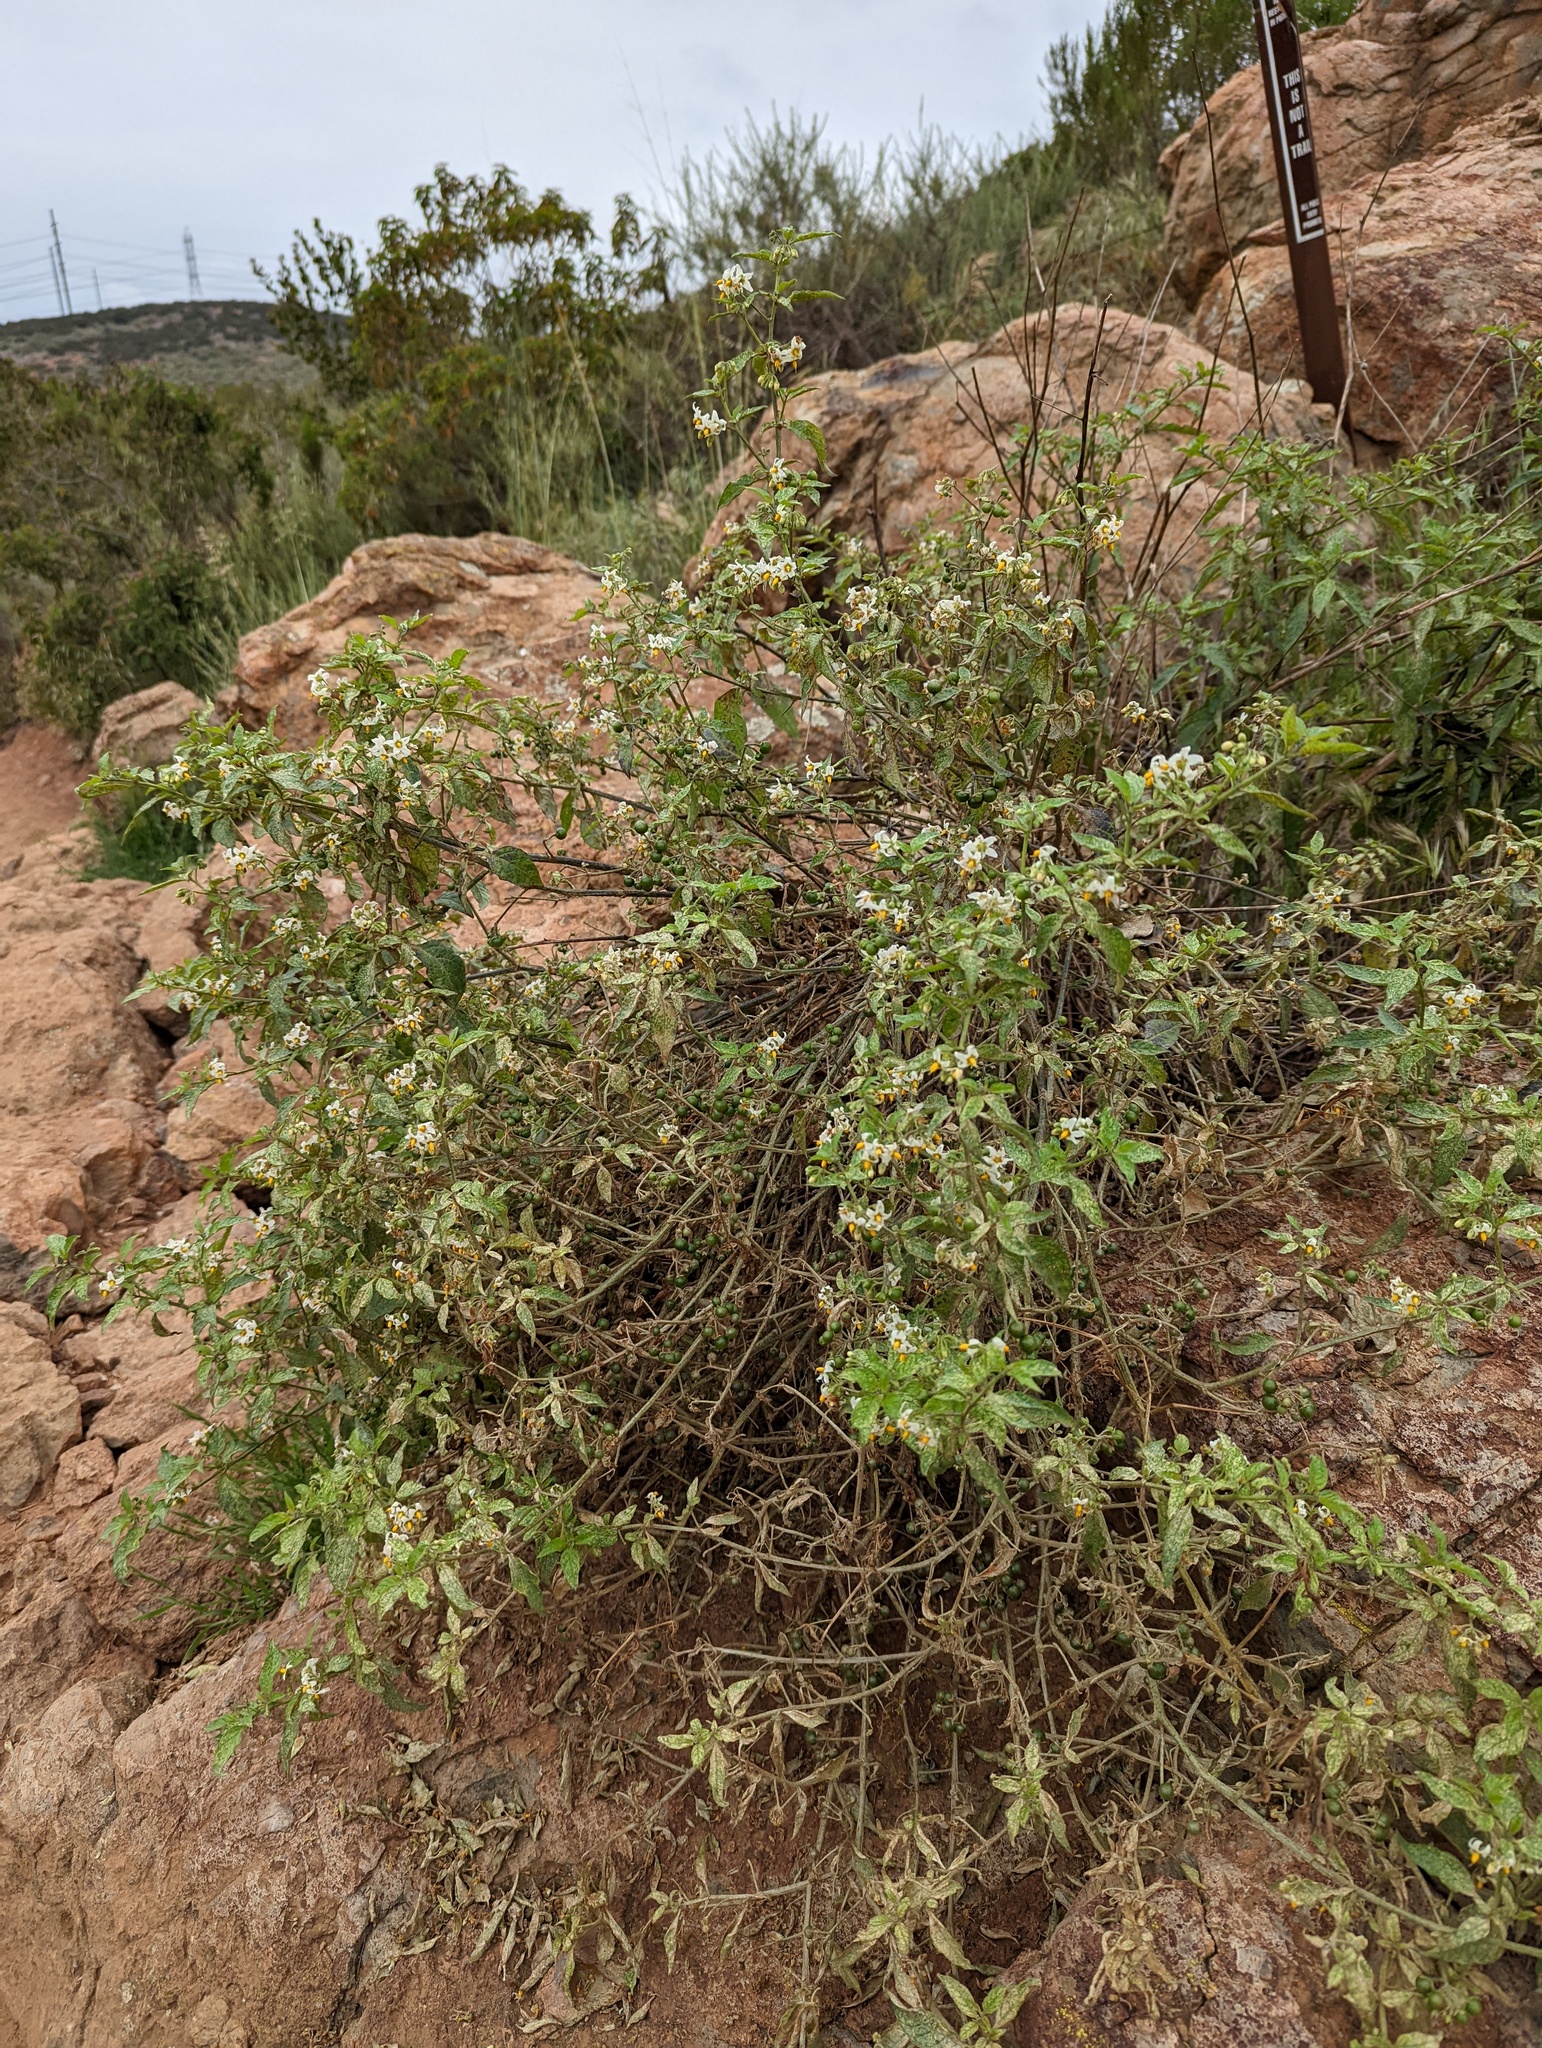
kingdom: Plantae
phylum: Tracheophyta
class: Magnoliopsida
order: Solanales
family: Solanaceae
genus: Solanum
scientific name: Solanum douglasii
